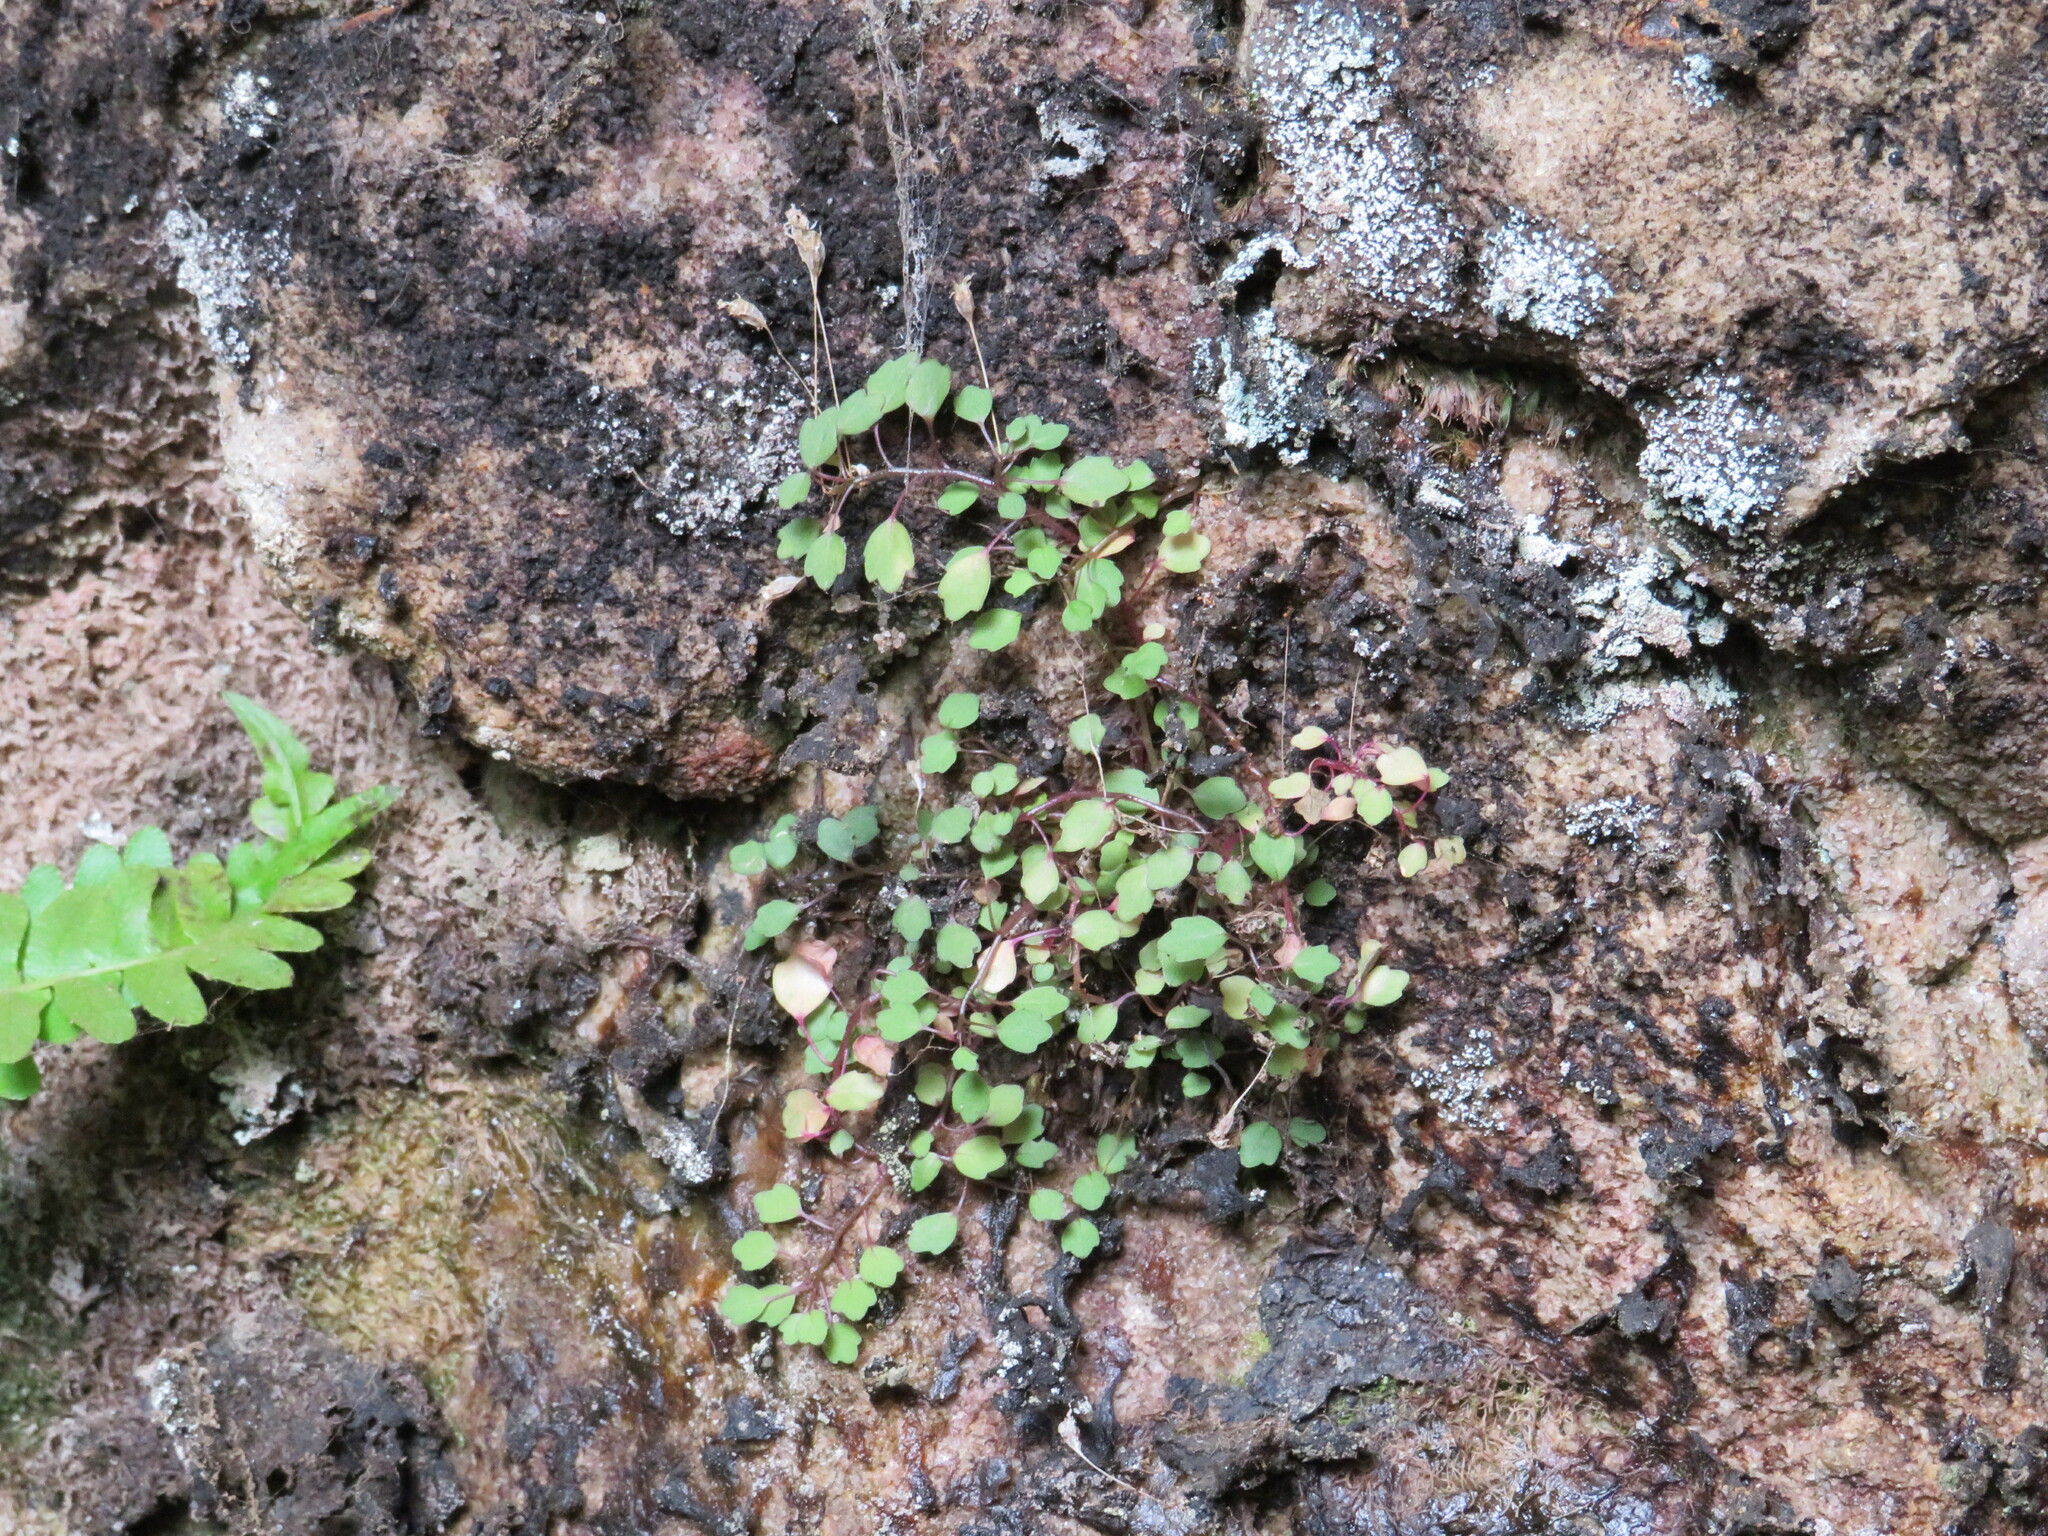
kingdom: Plantae
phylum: Tracheophyta
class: Magnoliopsida
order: Asterales
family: Campanulaceae
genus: Wimmerella
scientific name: Wimmerella pygmaea
